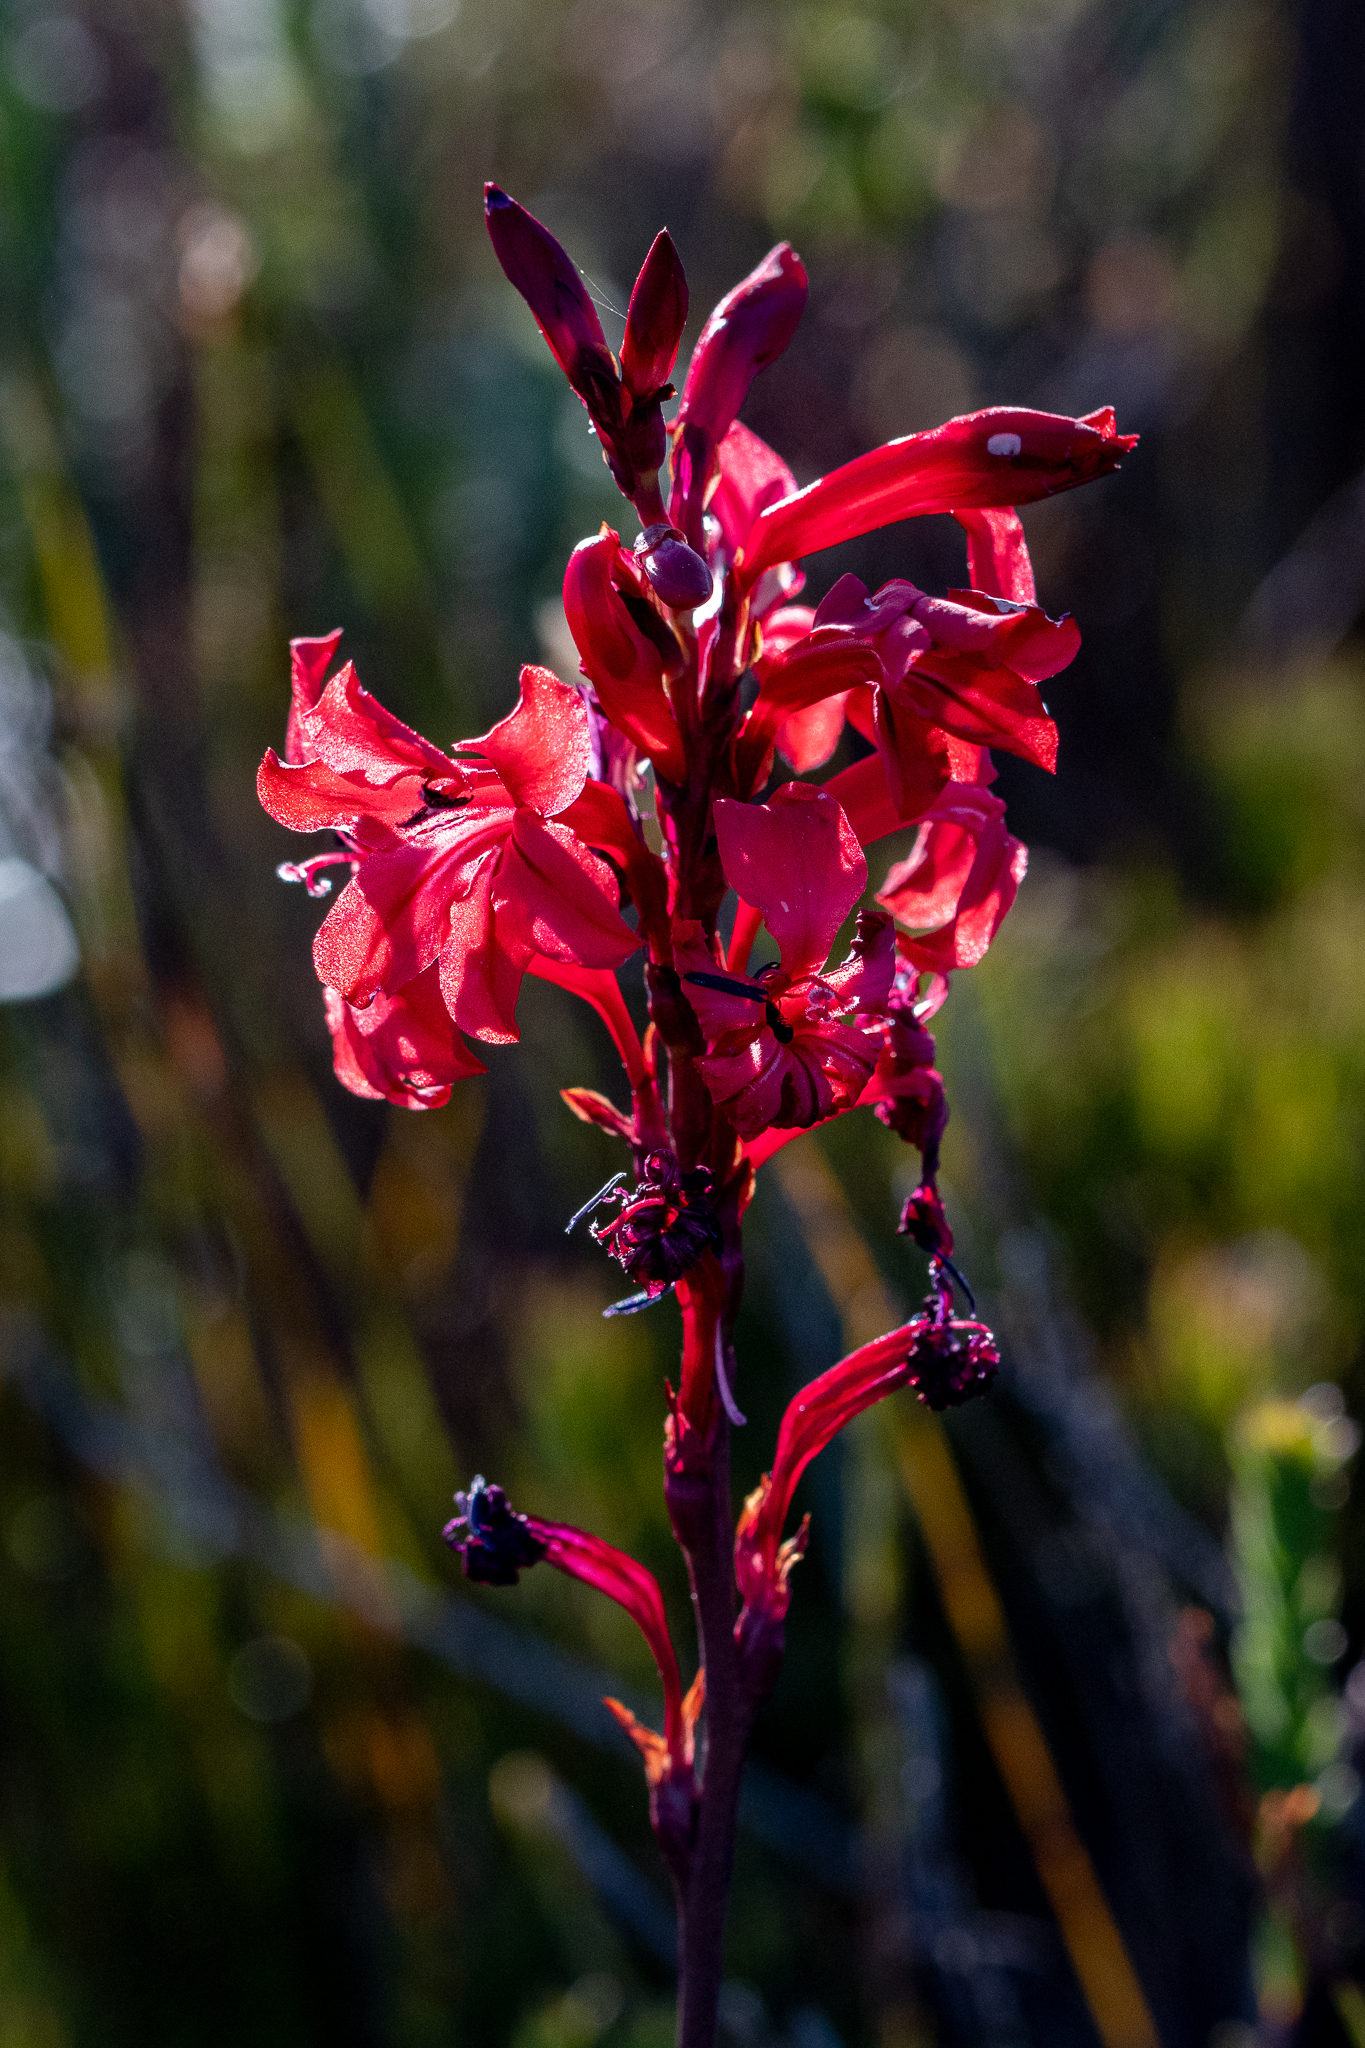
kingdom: Plantae
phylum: Tracheophyta
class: Liliopsida
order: Asparagales
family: Iridaceae
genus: Tritoniopsis
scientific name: Tritoniopsis pulchra
